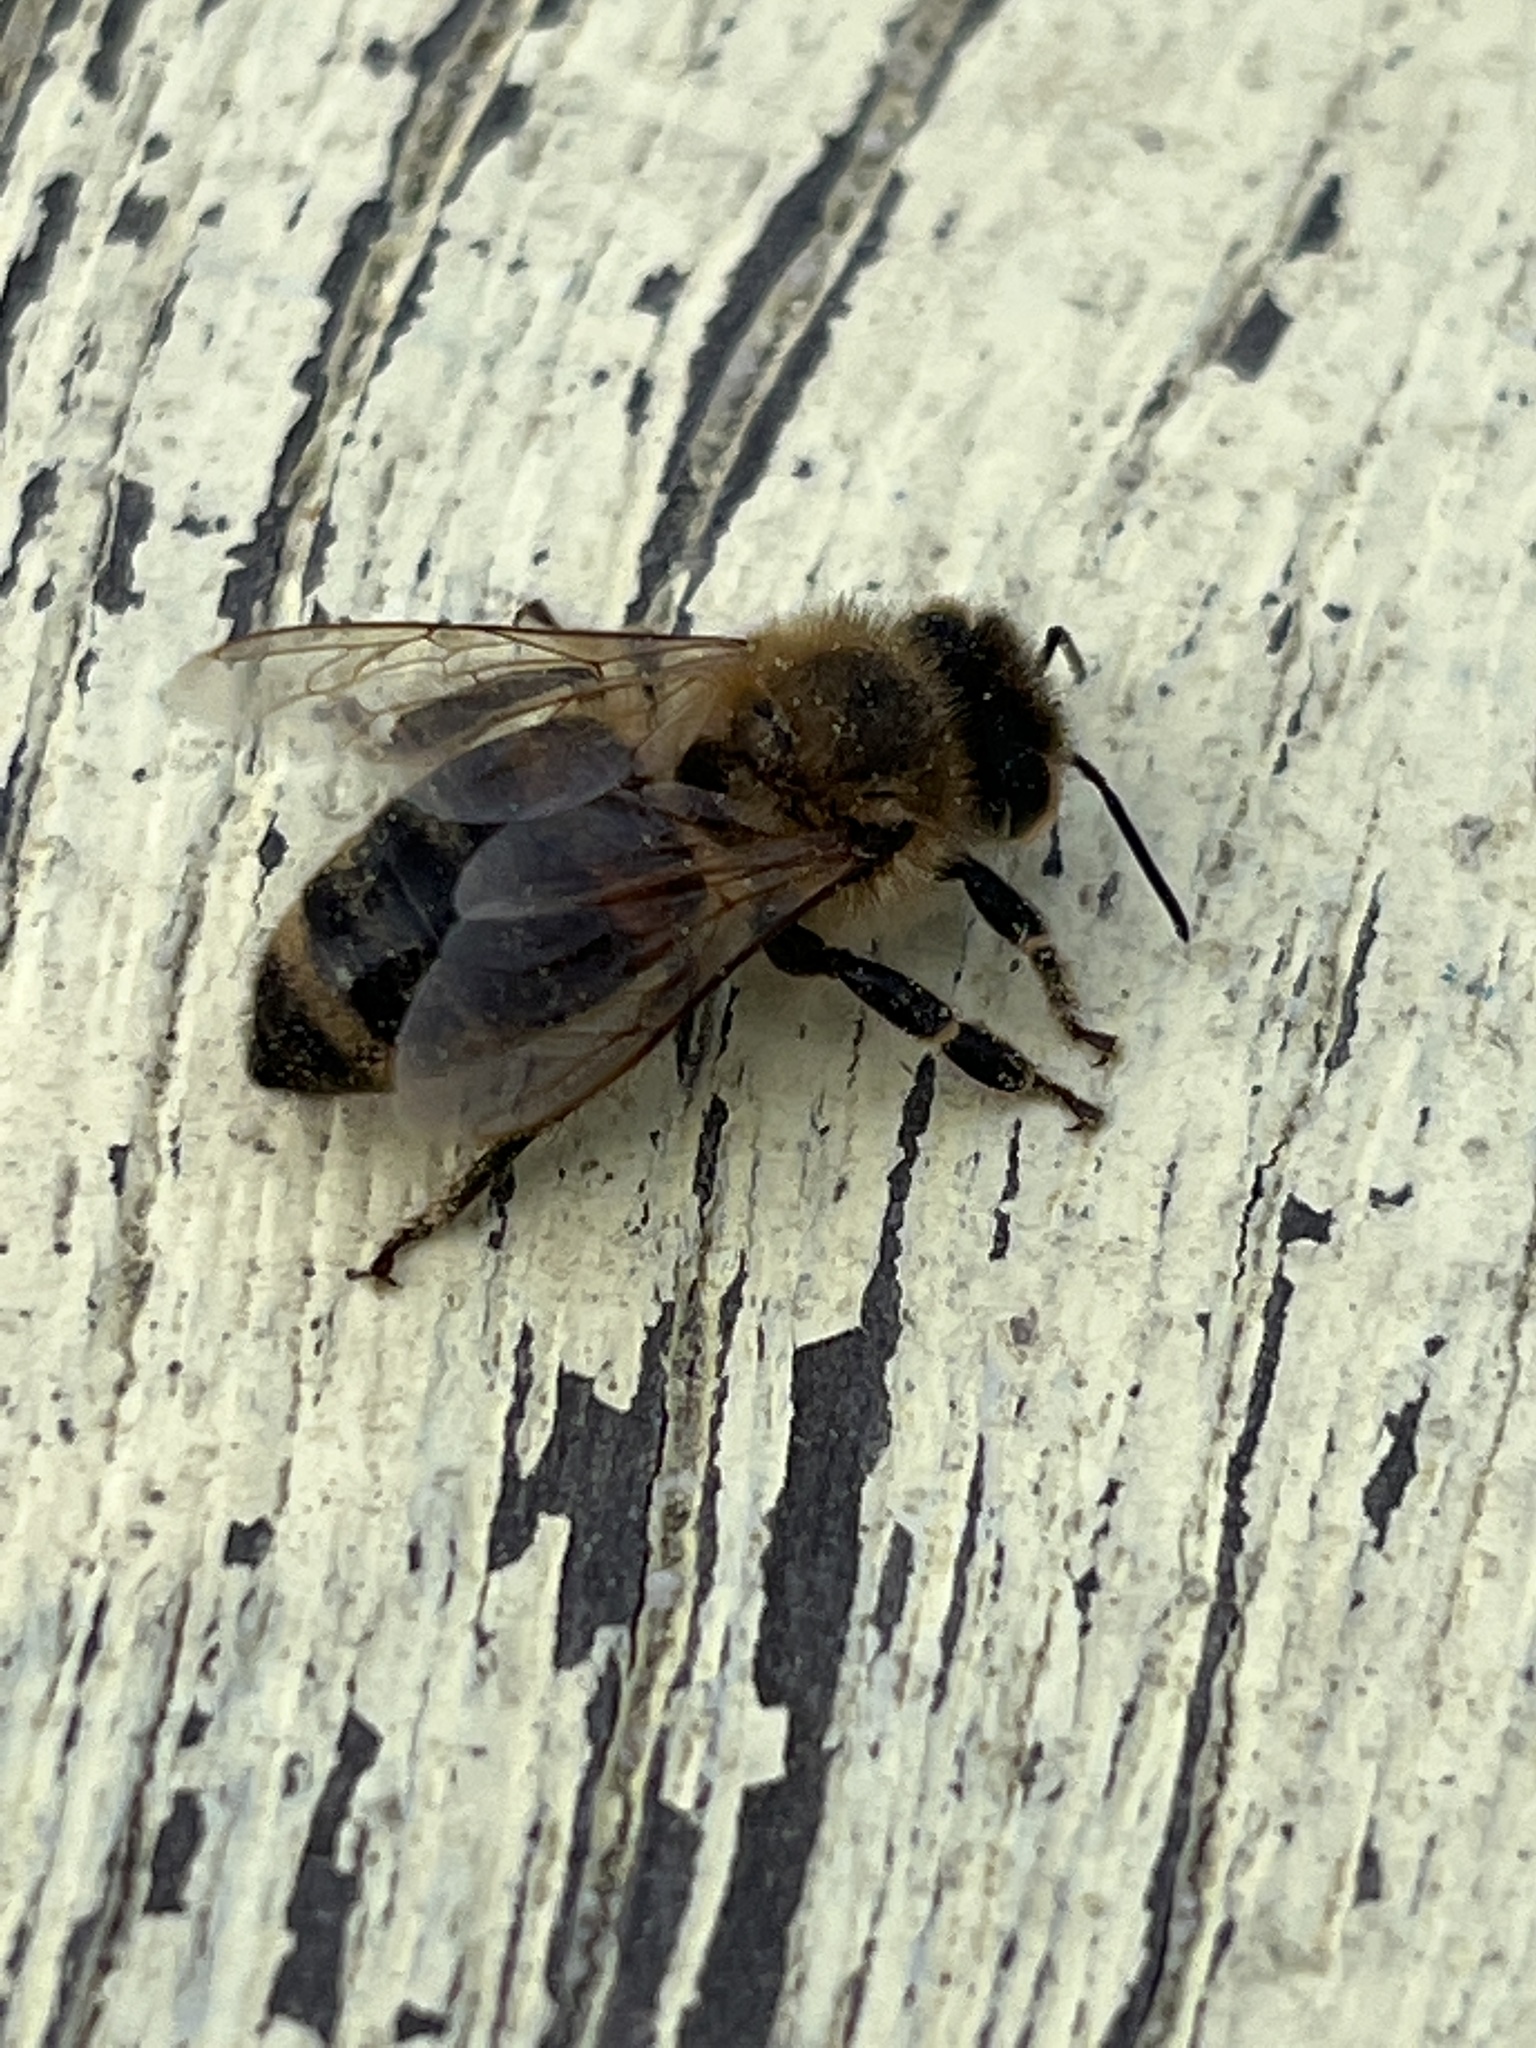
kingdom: Animalia
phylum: Arthropoda
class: Insecta
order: Hymenoptera
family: Apidae
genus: Apis
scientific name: Apis mellifera
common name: Honey bee
